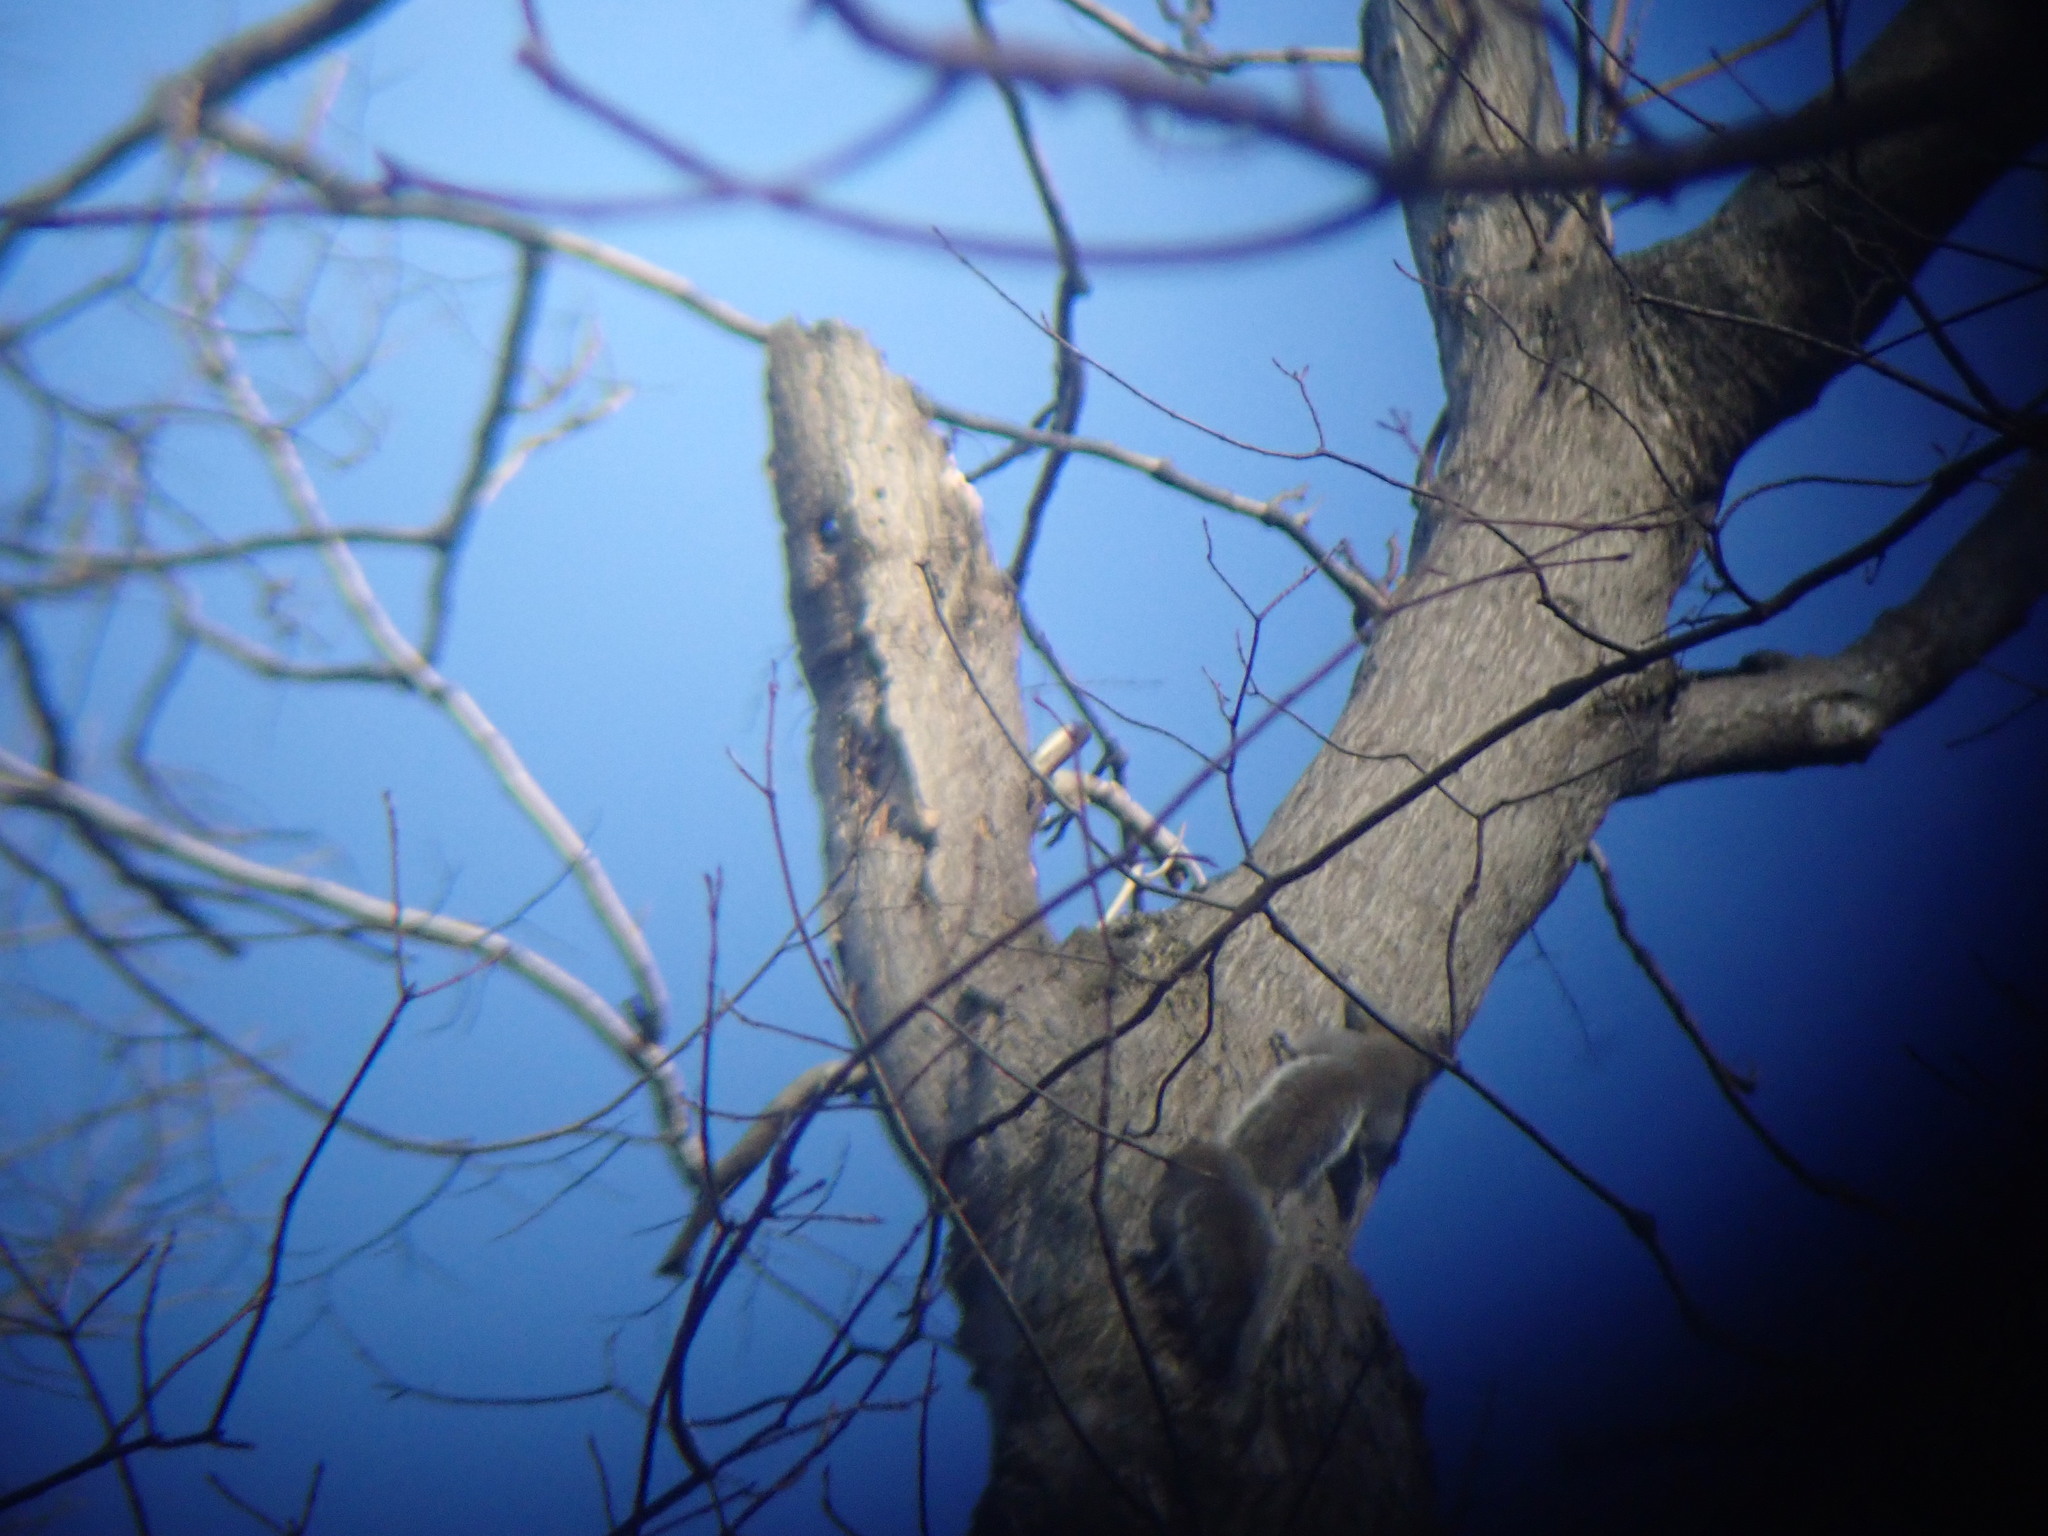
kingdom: Animalia
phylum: Chordata
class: Mammalia
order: Rodentia
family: Sciuridae
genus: Sciurus
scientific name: Sciurus carolinensis
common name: Eastern gray squirrel
